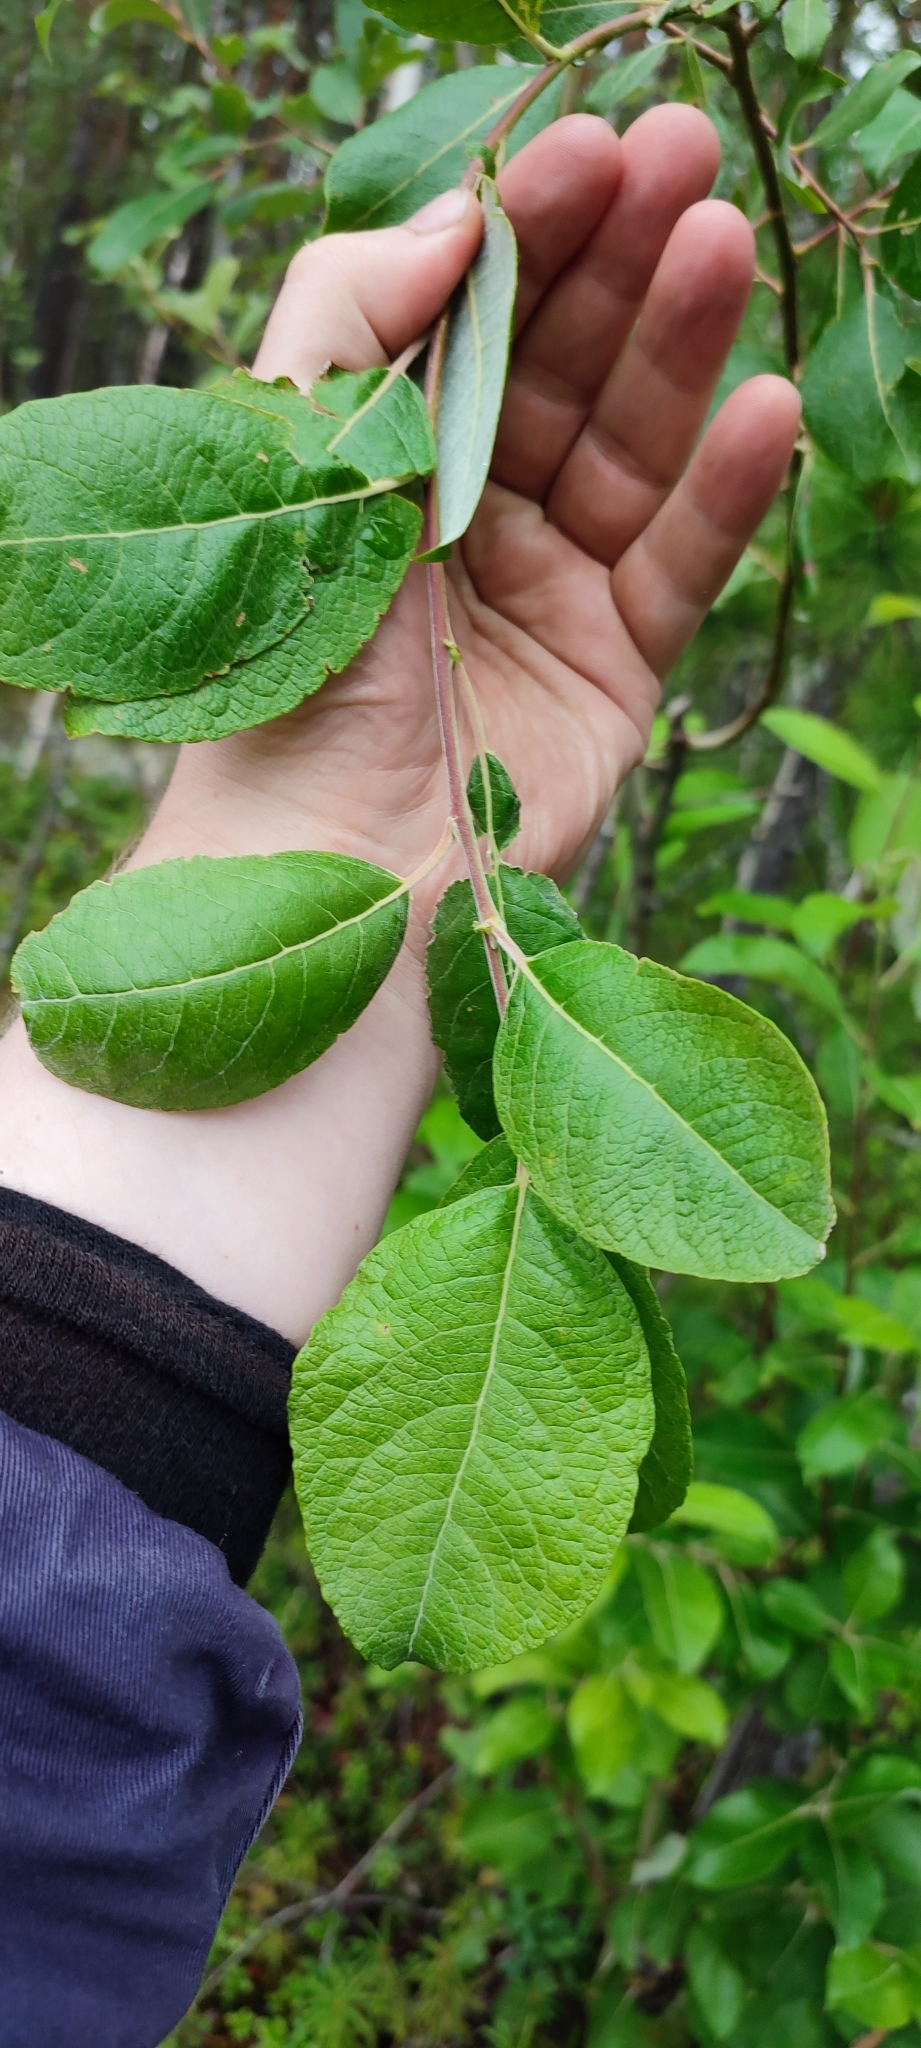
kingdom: Plantae
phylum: Tracheophyta
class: Magnoliopsida
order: Malpighiales
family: Salicaceae
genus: Salix
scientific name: Salix caprea
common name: Goat willow
